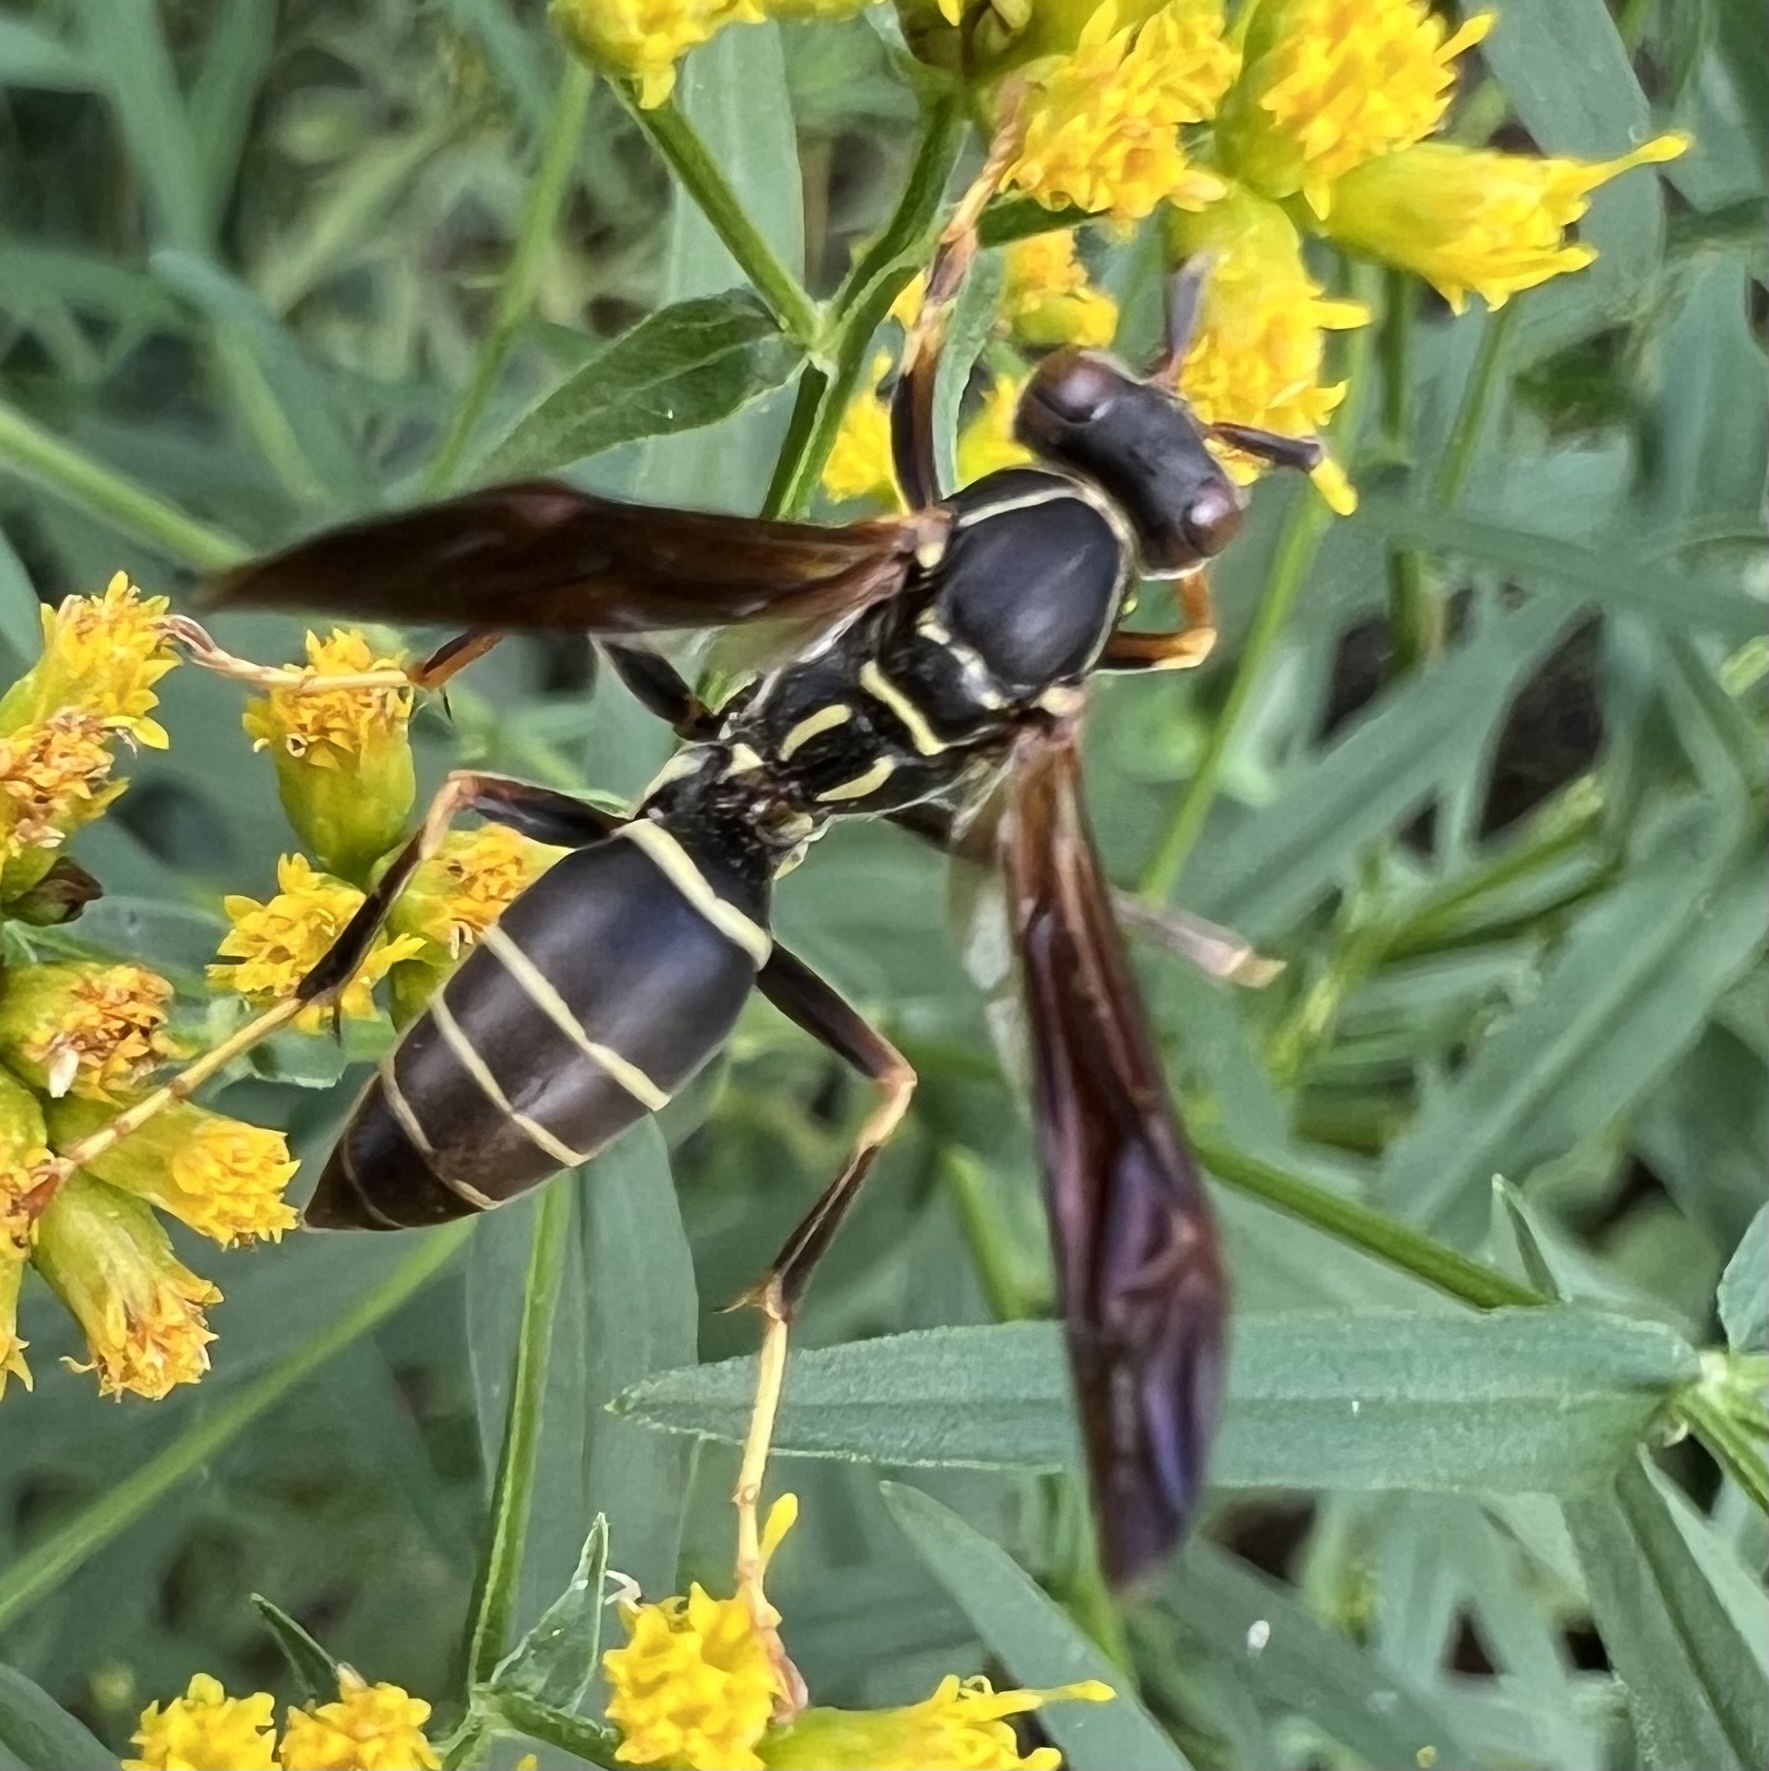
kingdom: Animalia
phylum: Arthropoda
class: Insecta
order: Hymenoptera
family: Eumenidae
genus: Polistes
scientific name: Polistes fuscatus
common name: Dark paper wasp
